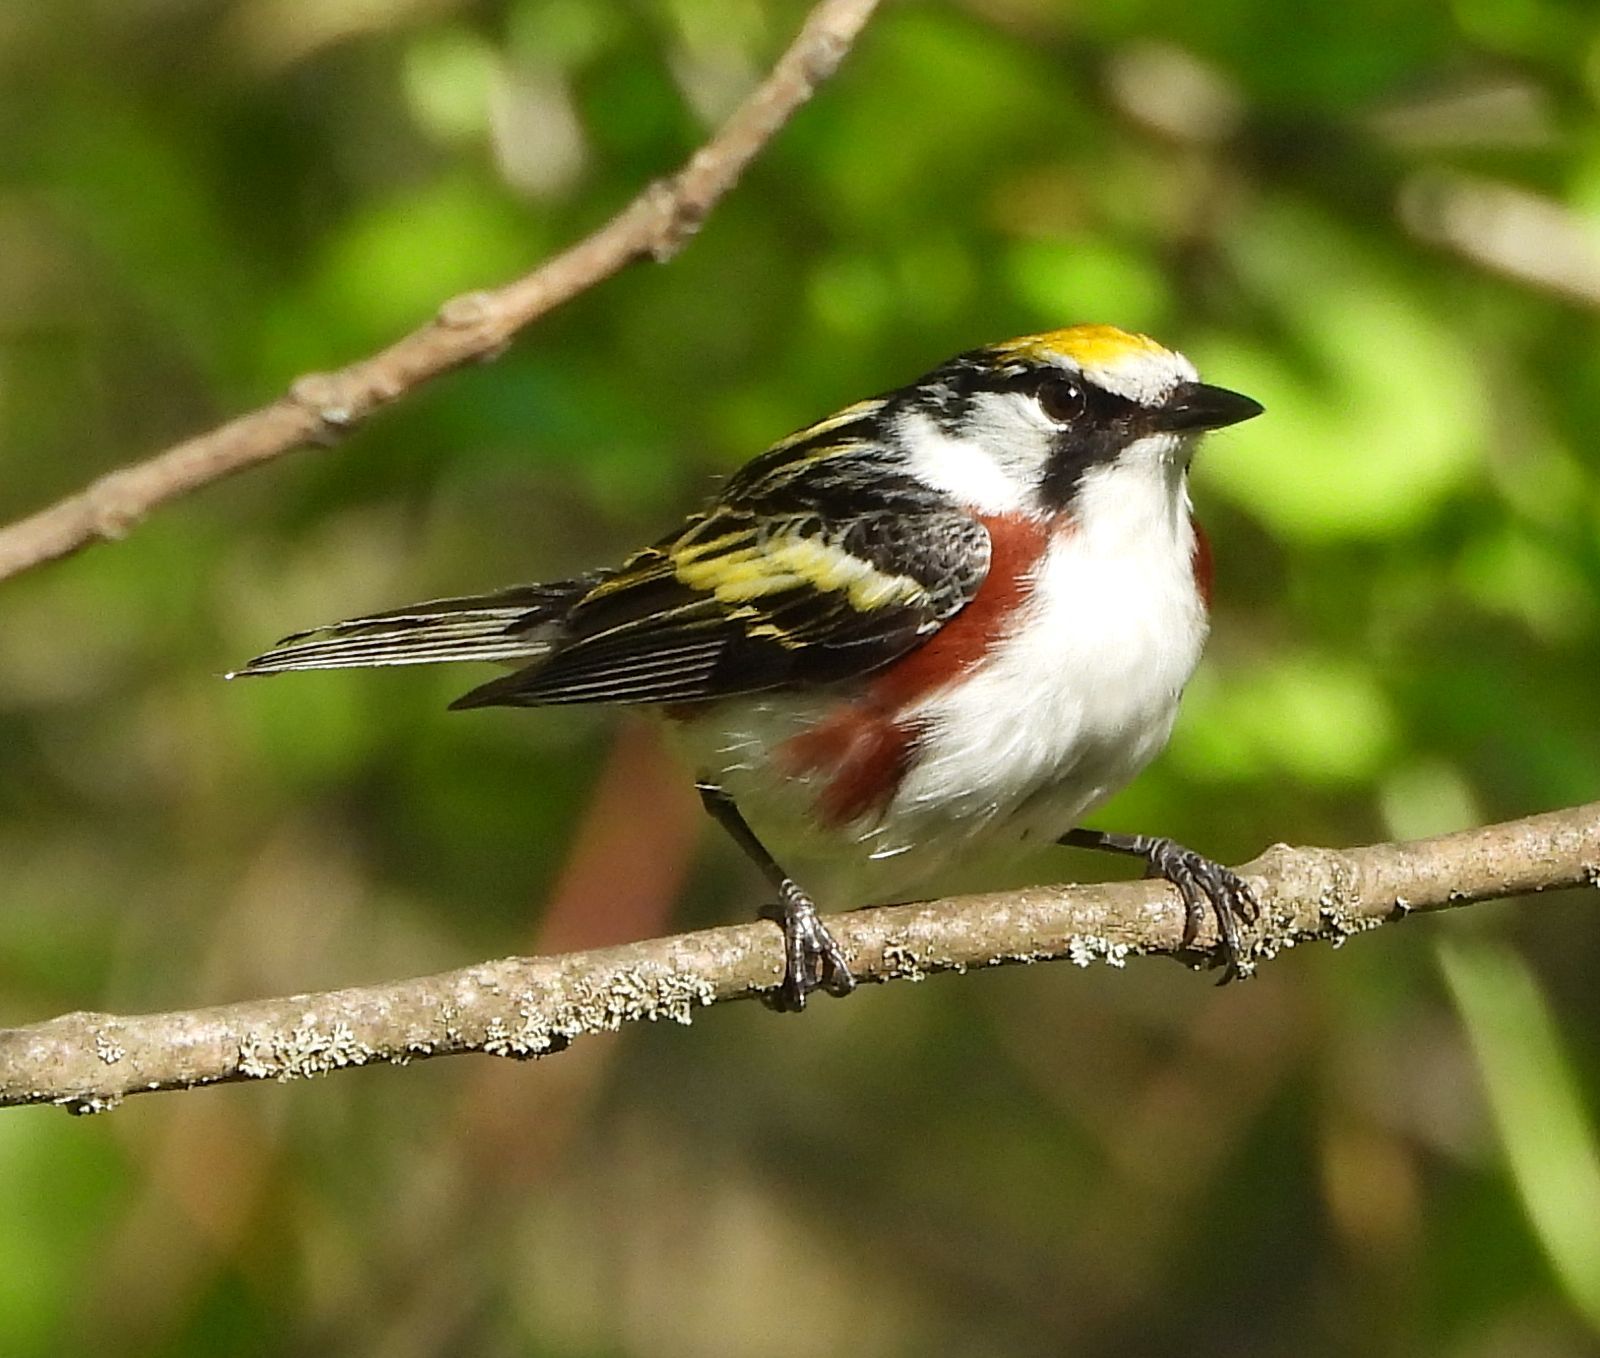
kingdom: Animalia
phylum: Chordata
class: Aves
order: Passeriformes
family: Parulidae
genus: Setophaga
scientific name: Setophaga pensylvanica
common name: Chestnut-sided warbler
